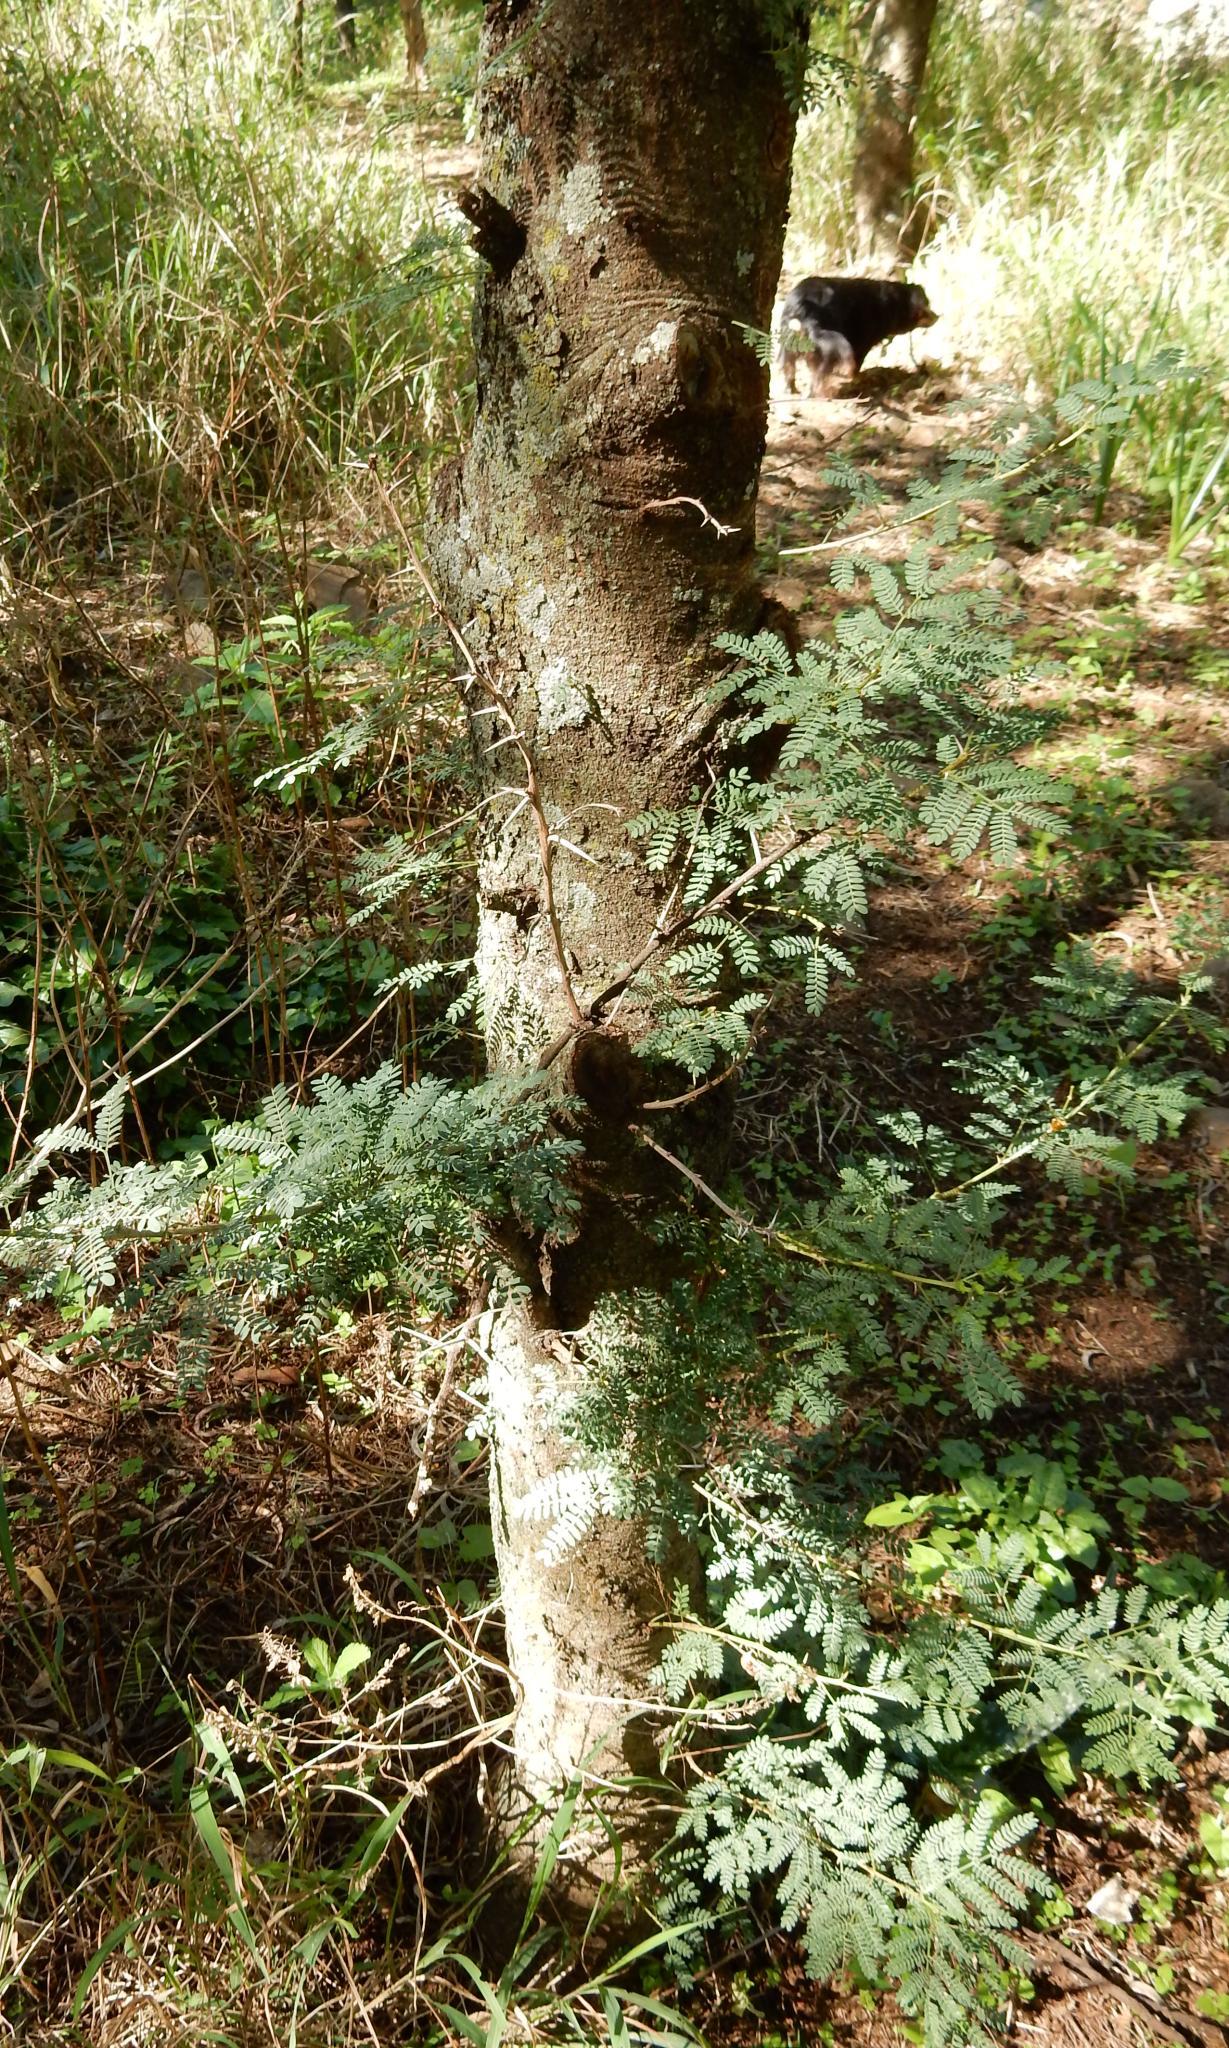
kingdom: Plantae
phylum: Tracheophyta
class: Magnoliopsida
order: Fabales
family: Fabaceae
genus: Vachellia
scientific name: Vachellia karroo
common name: Sweet thorn
